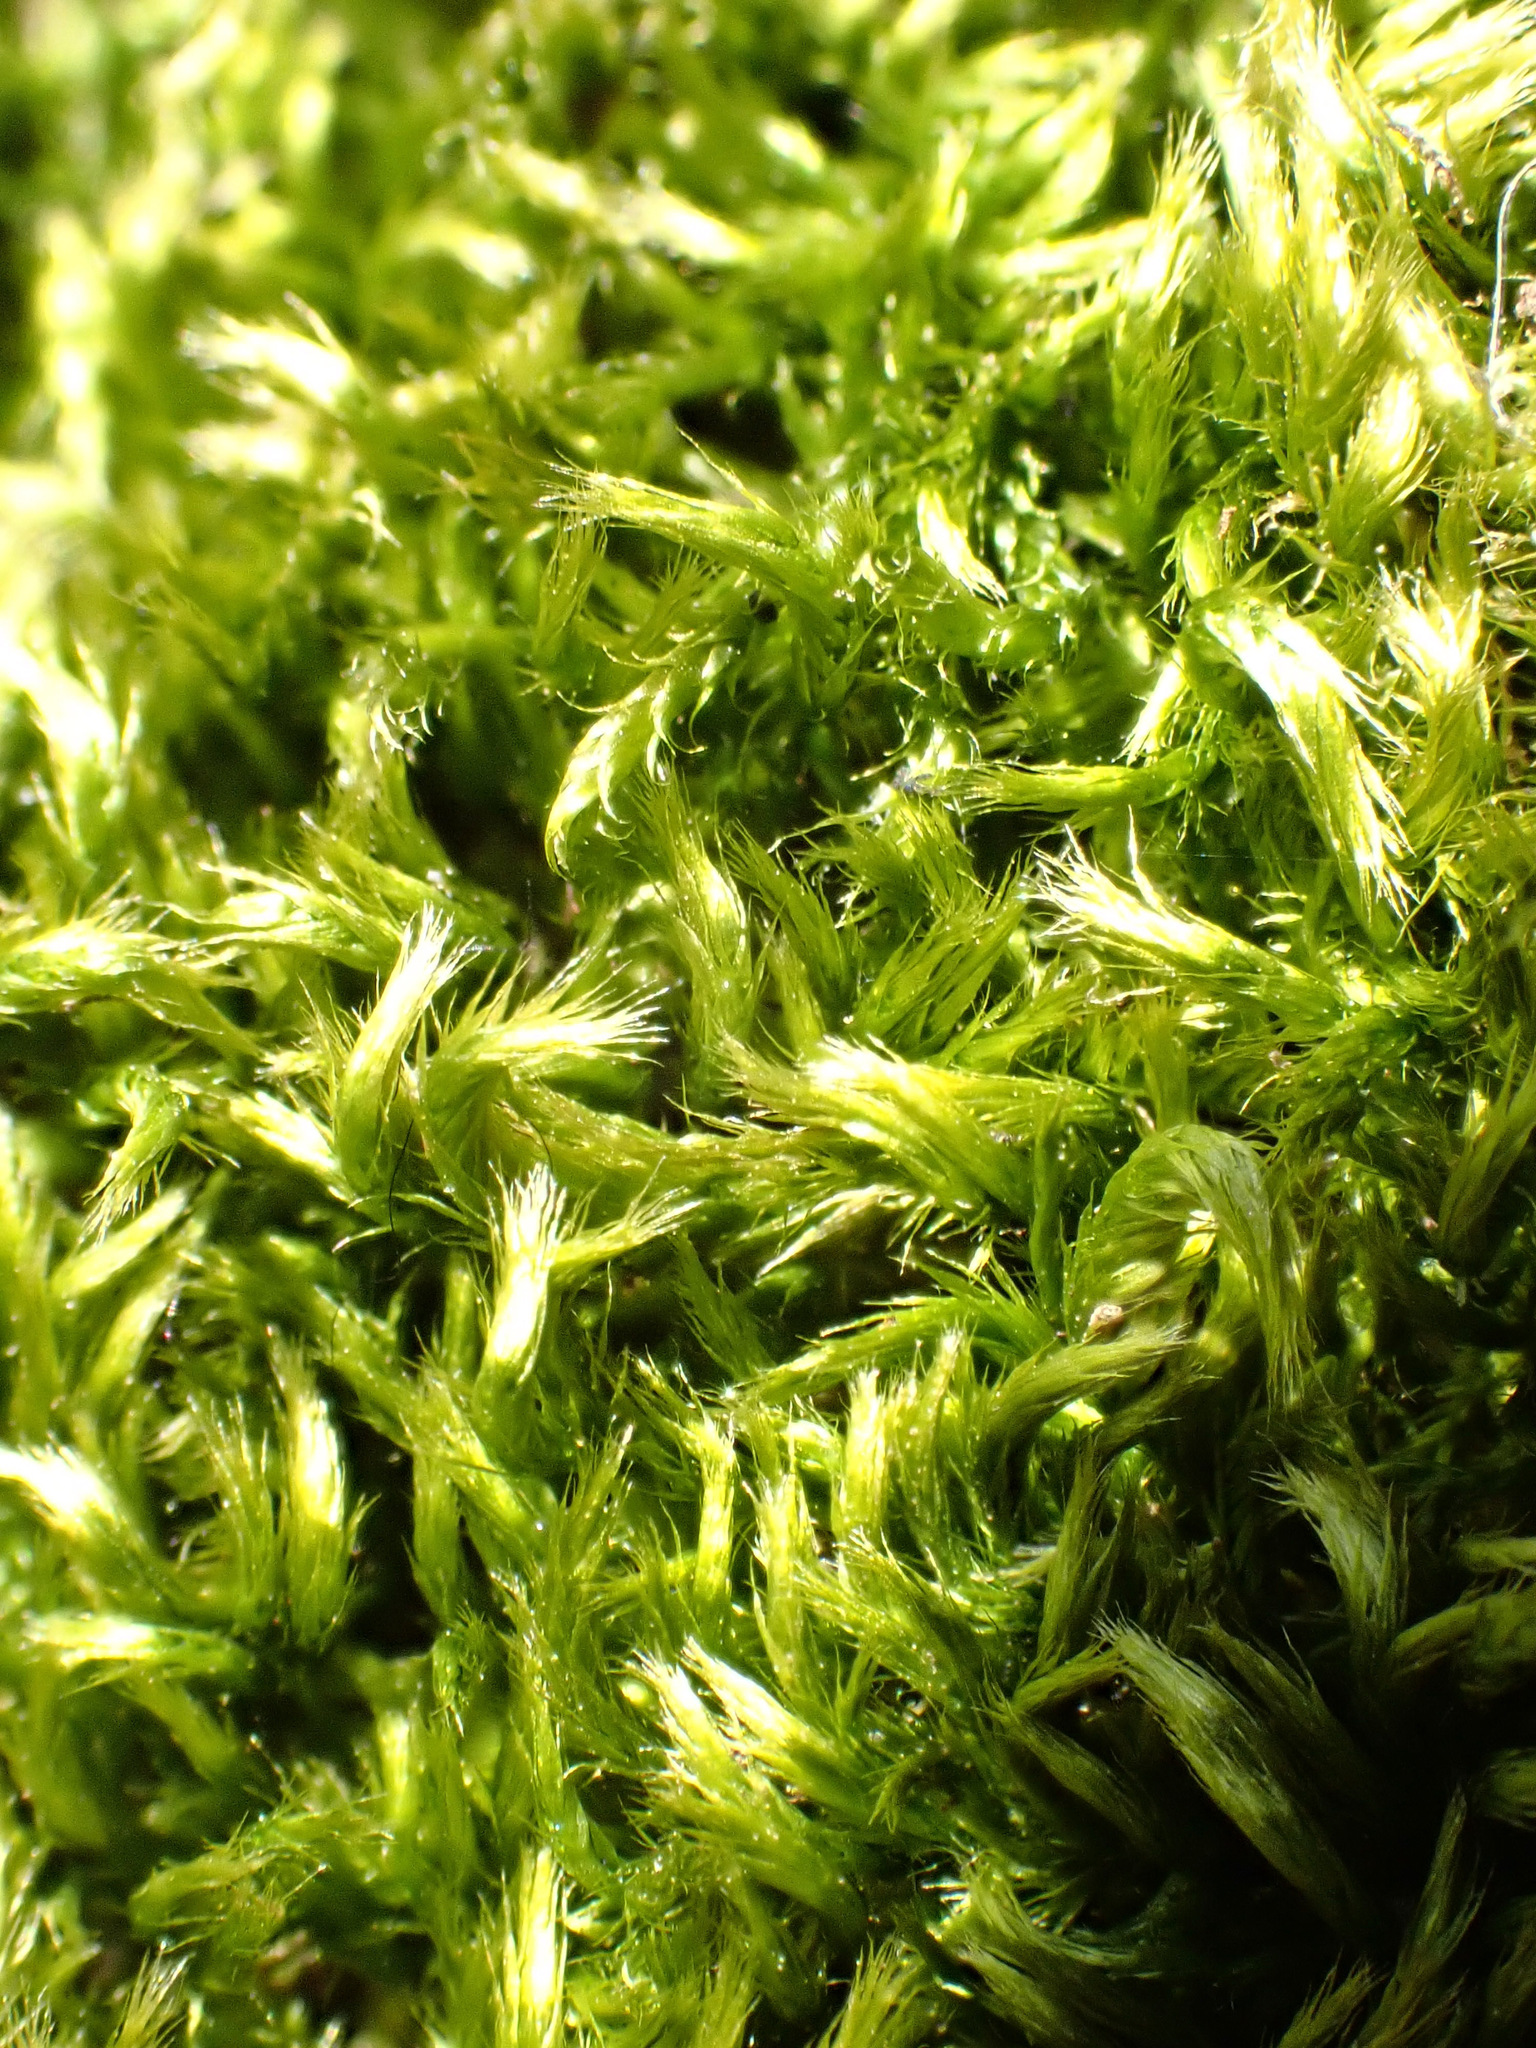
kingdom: Plantae
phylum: Bryophyta
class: Bryopsida
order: Hypnales
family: Brachytheciaceae
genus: Homalothecium
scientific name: Homalothecium sericeum
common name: Silky wall feather-moss
